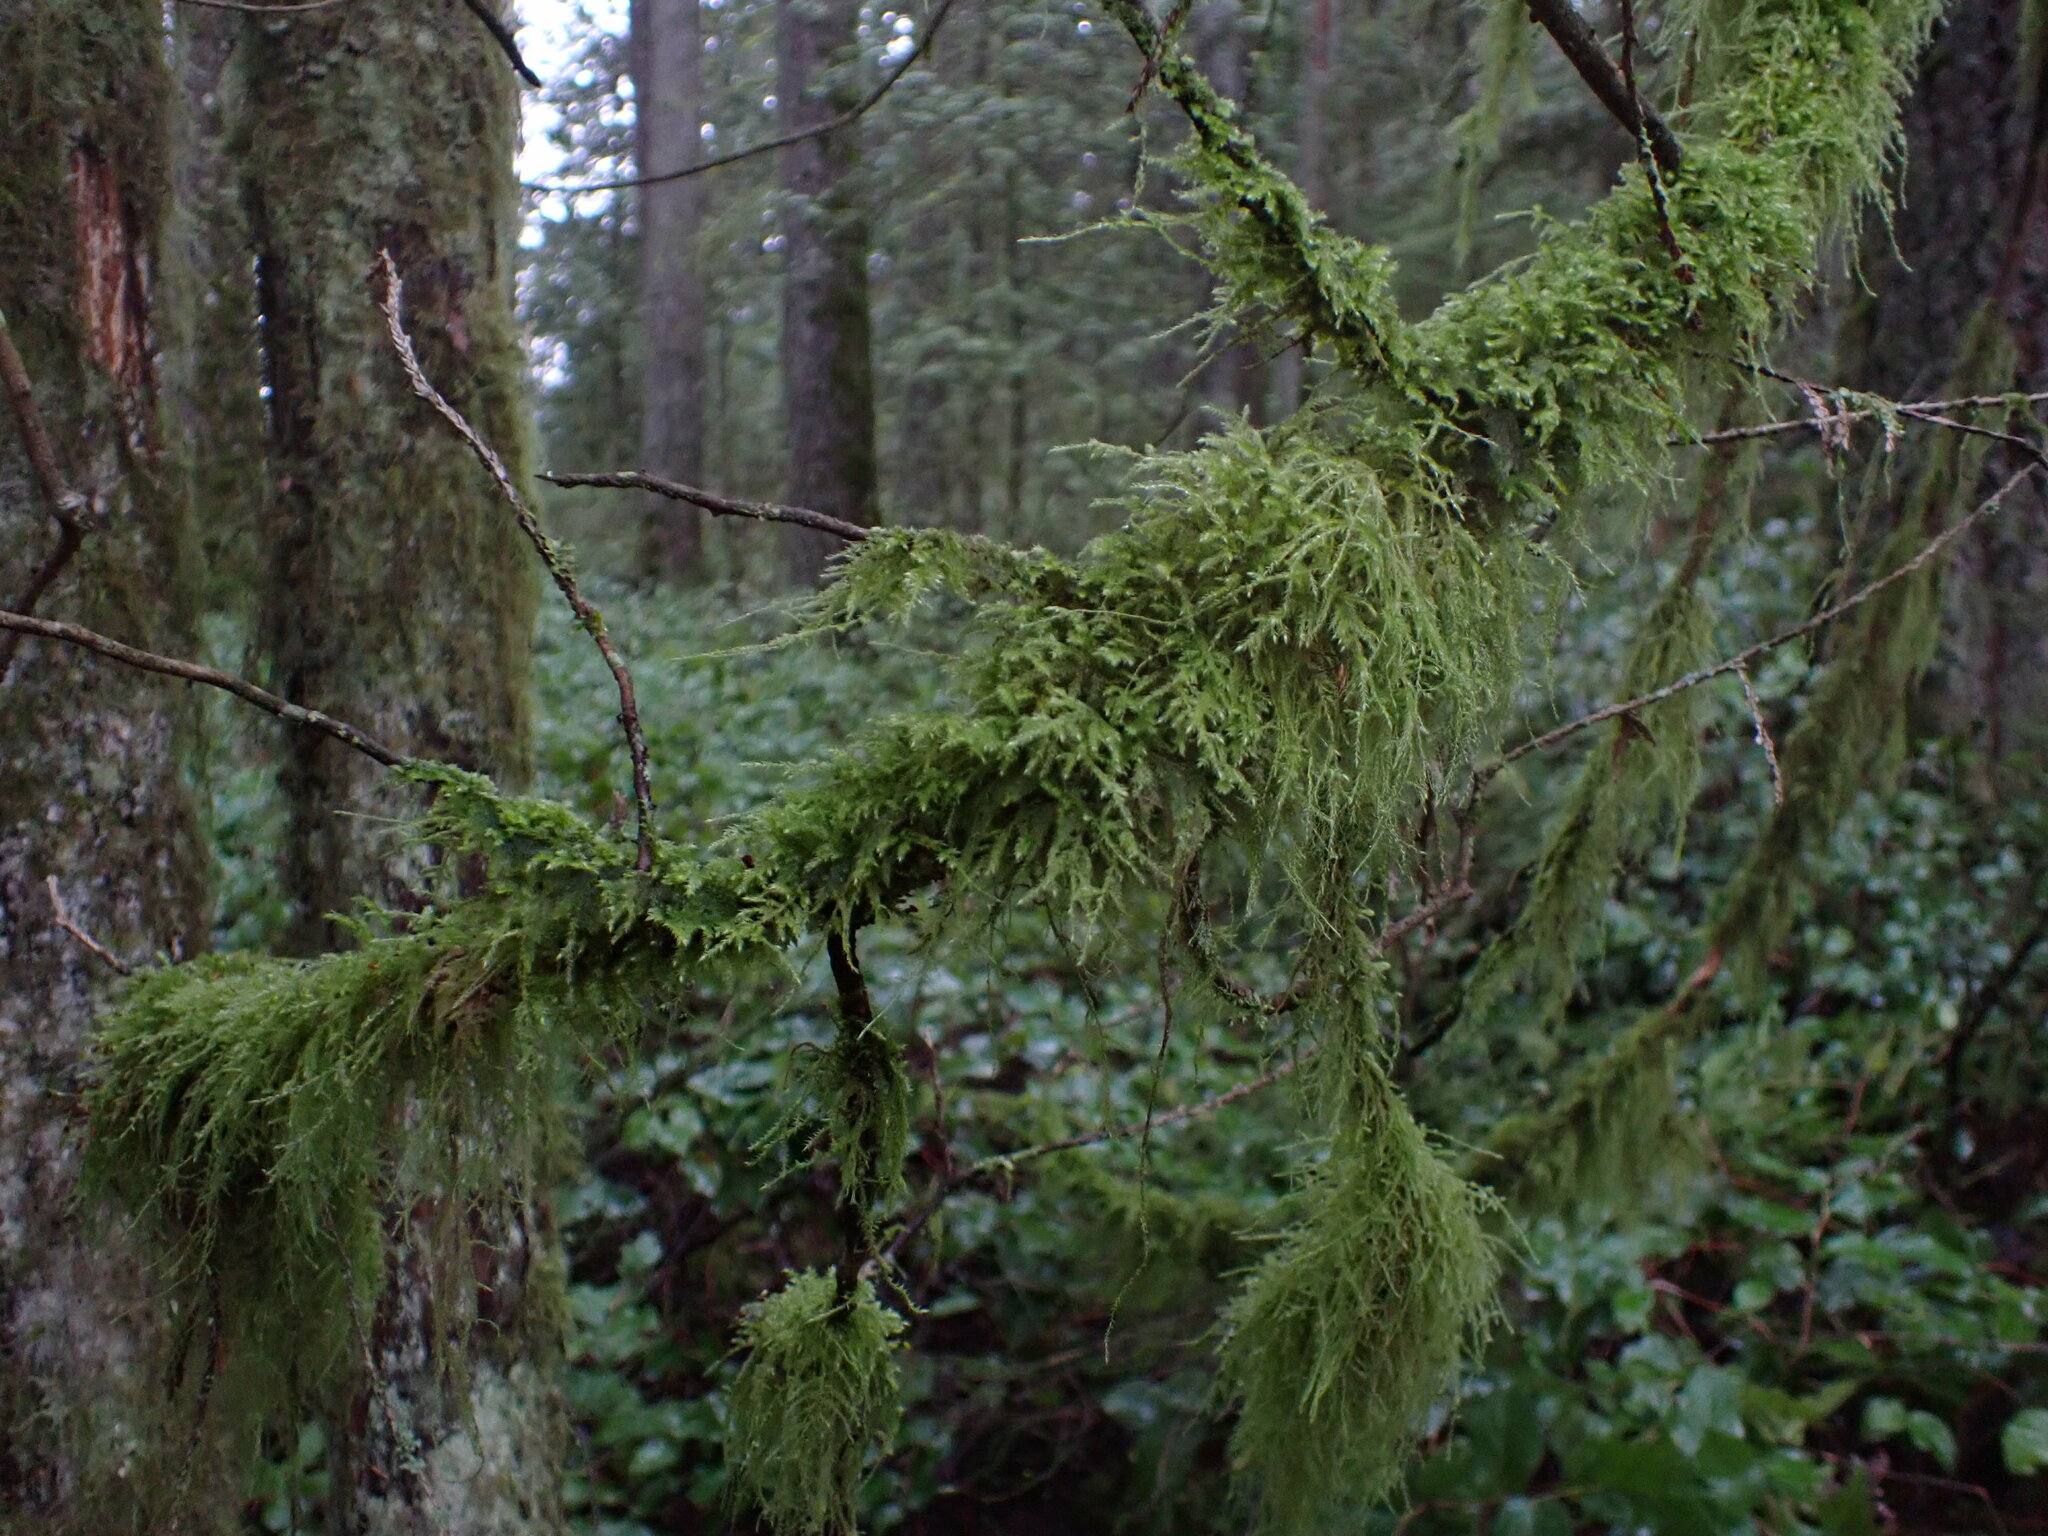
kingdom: Plantae
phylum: Bryophyta
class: Bryopsida
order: Hypnales
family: Lembophyllaceae
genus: Pseudisothecium
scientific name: Pseudisothecium stoloniferum
